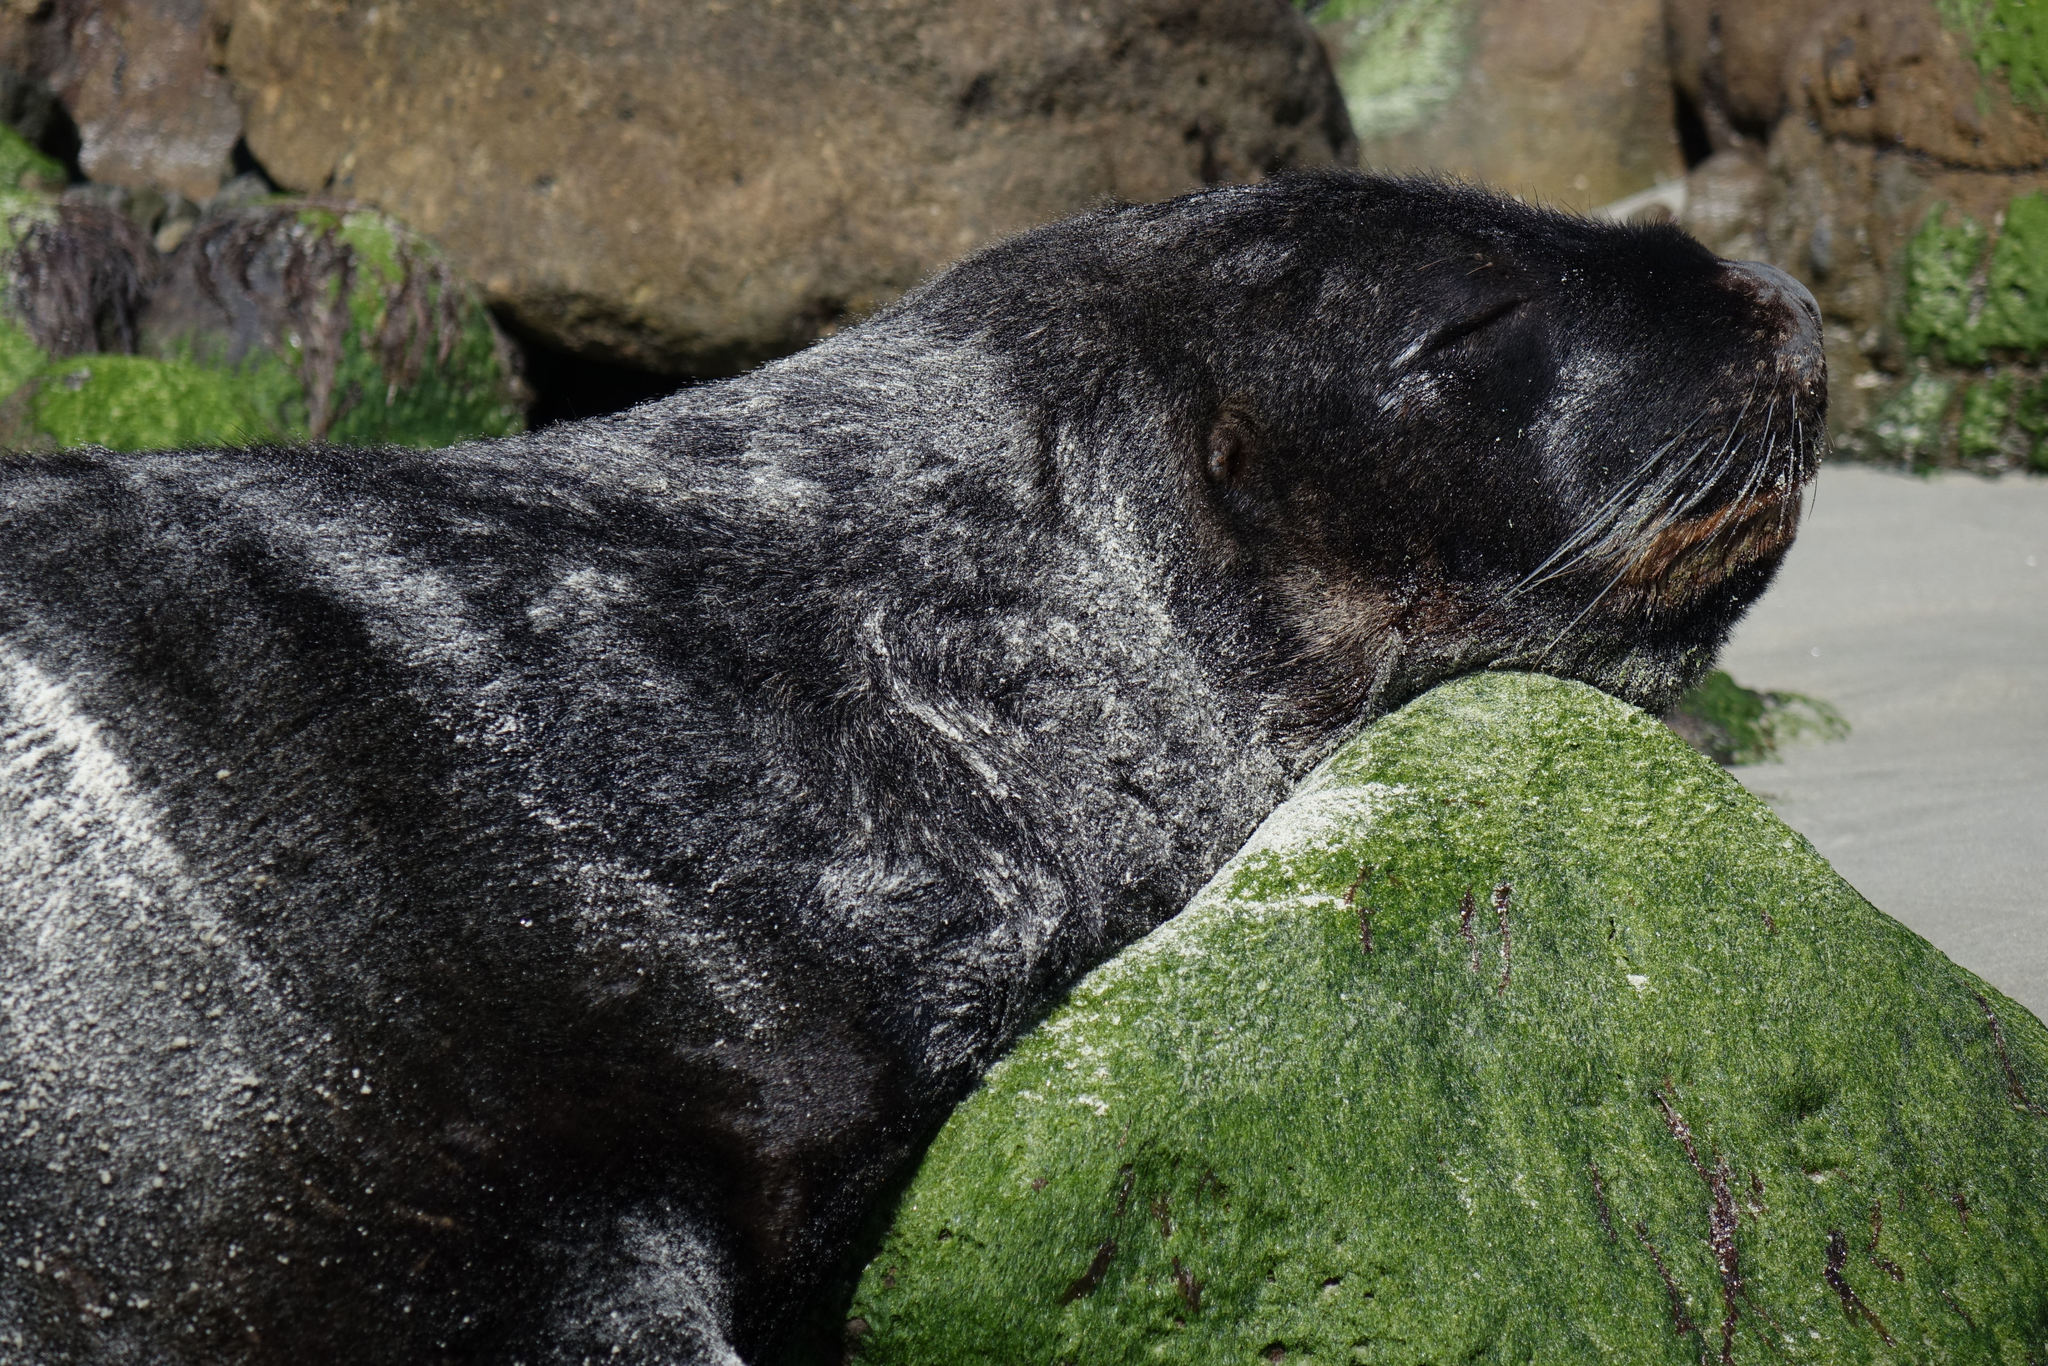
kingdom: Animalia
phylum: Chordata
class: Mammalia
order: Carnivora
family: Otariidae
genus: Phocarctos
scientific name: Phocarctos hookeri
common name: New zealand sea lion
